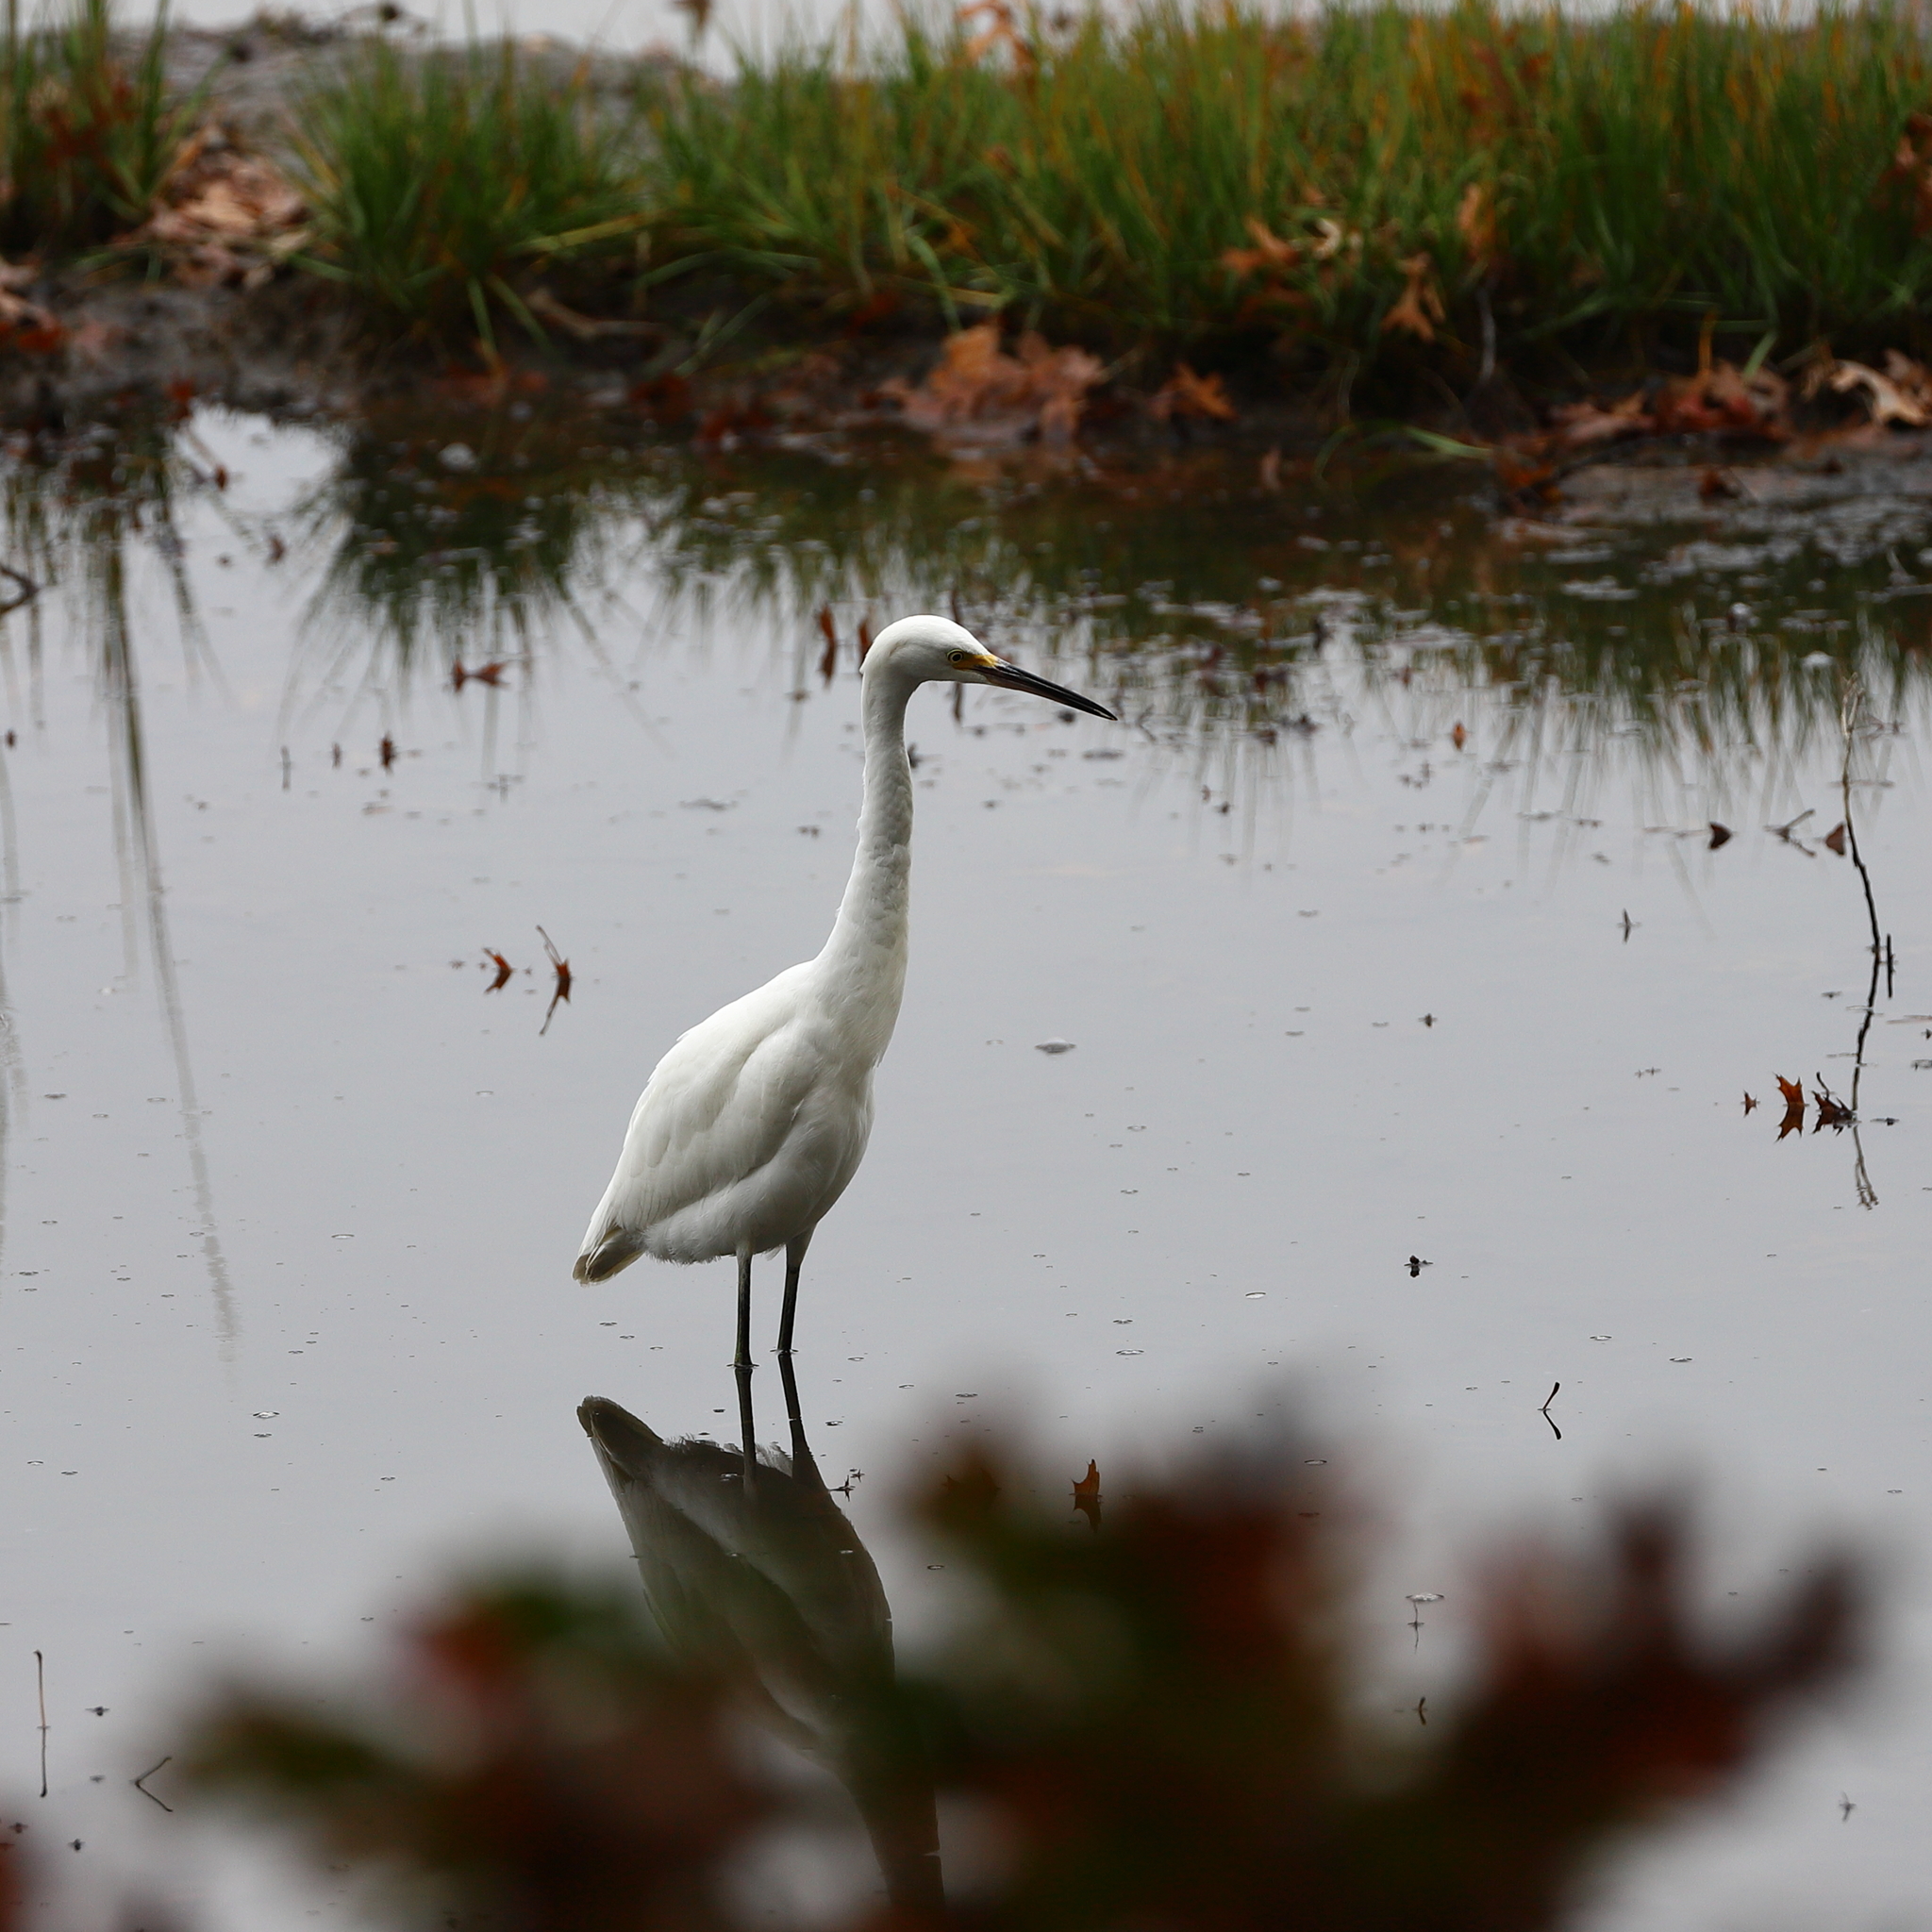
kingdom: Animalia
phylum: Chordata
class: Aves
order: Pelecaniformes
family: Ardeidae
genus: Egretta
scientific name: Egretta thula
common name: Snowy egret
